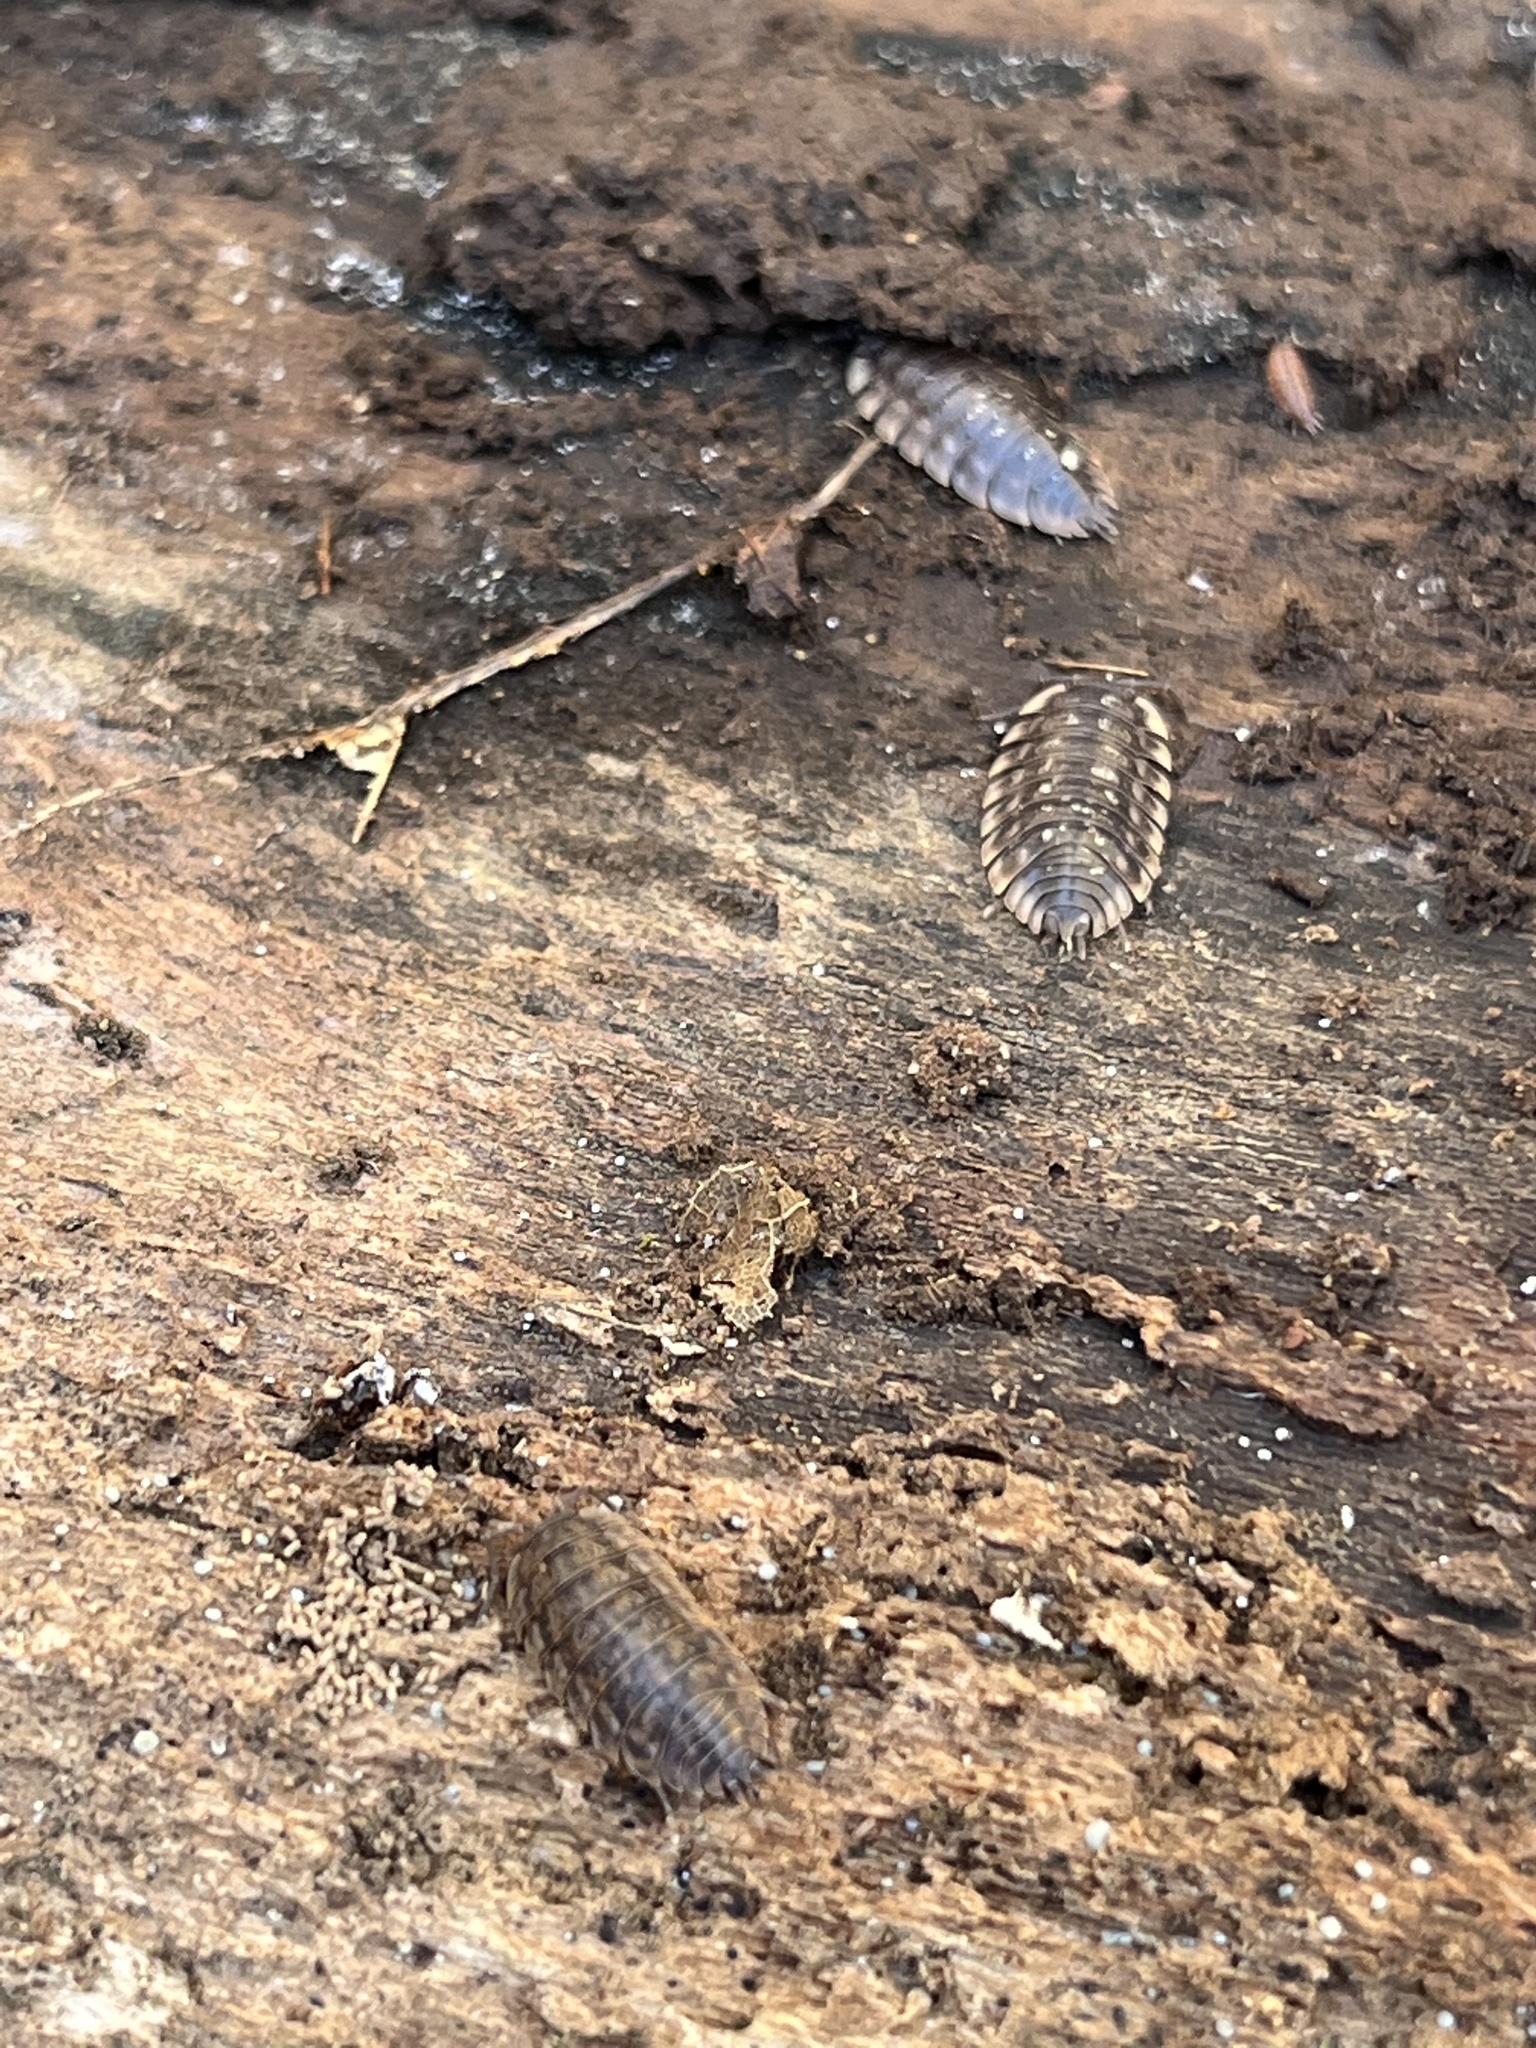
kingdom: Animalia
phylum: Arthropoda
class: Malacostraca
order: Isopoda
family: Oniscidae
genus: Oniscus
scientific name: Oniscus asellus
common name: Common shiny woodlouse
